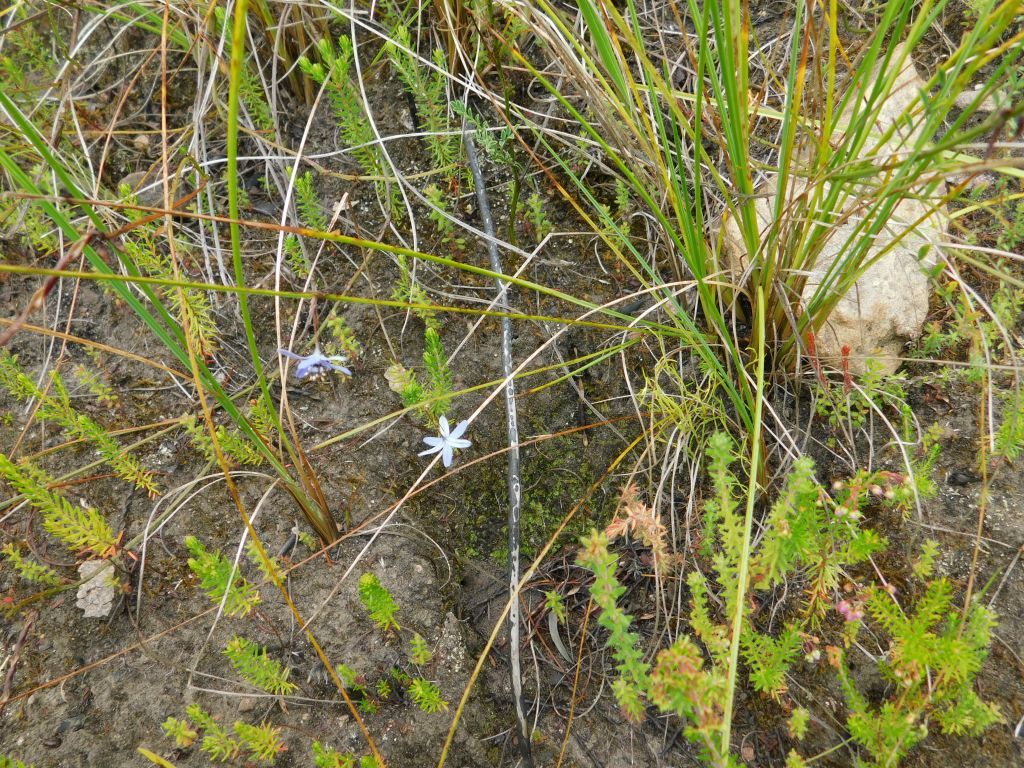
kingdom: Plantae
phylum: Tracheophyta
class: Liliopsida
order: Asparagales
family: Asphodelaceae
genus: Caesia
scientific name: Caesia contorta
